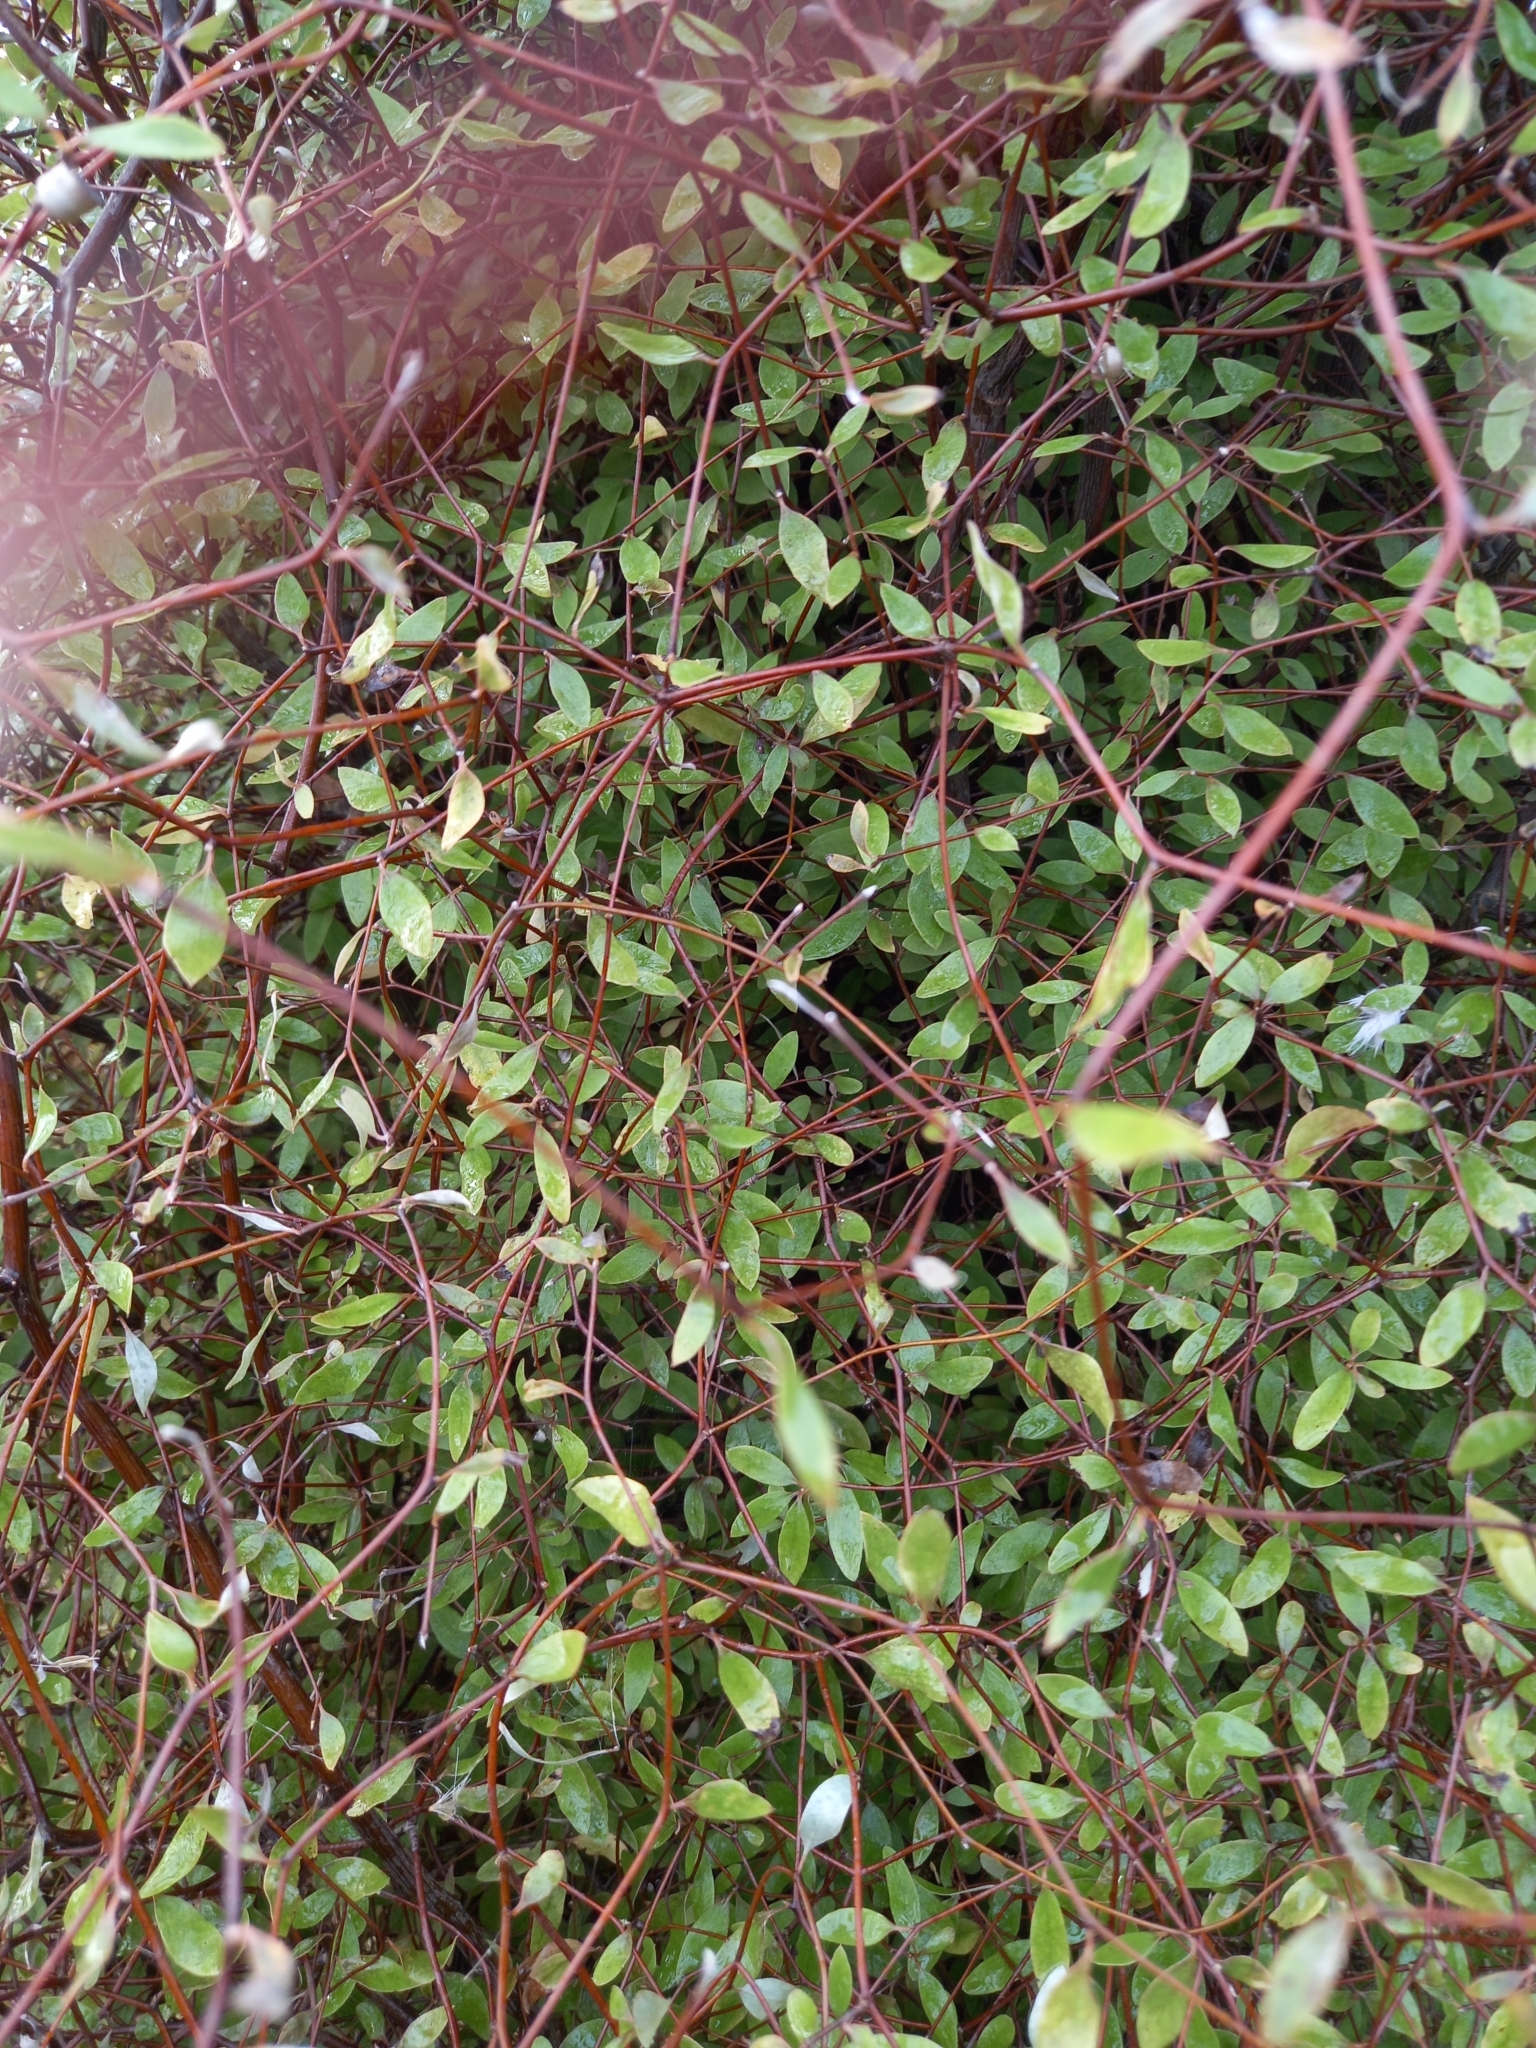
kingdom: Plantae
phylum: Tracheophyta
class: Magnoliopsida
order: Asterales
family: Asteraceae
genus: Olearia
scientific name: Olearia fragrantissima
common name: Fragrant tree daisy
